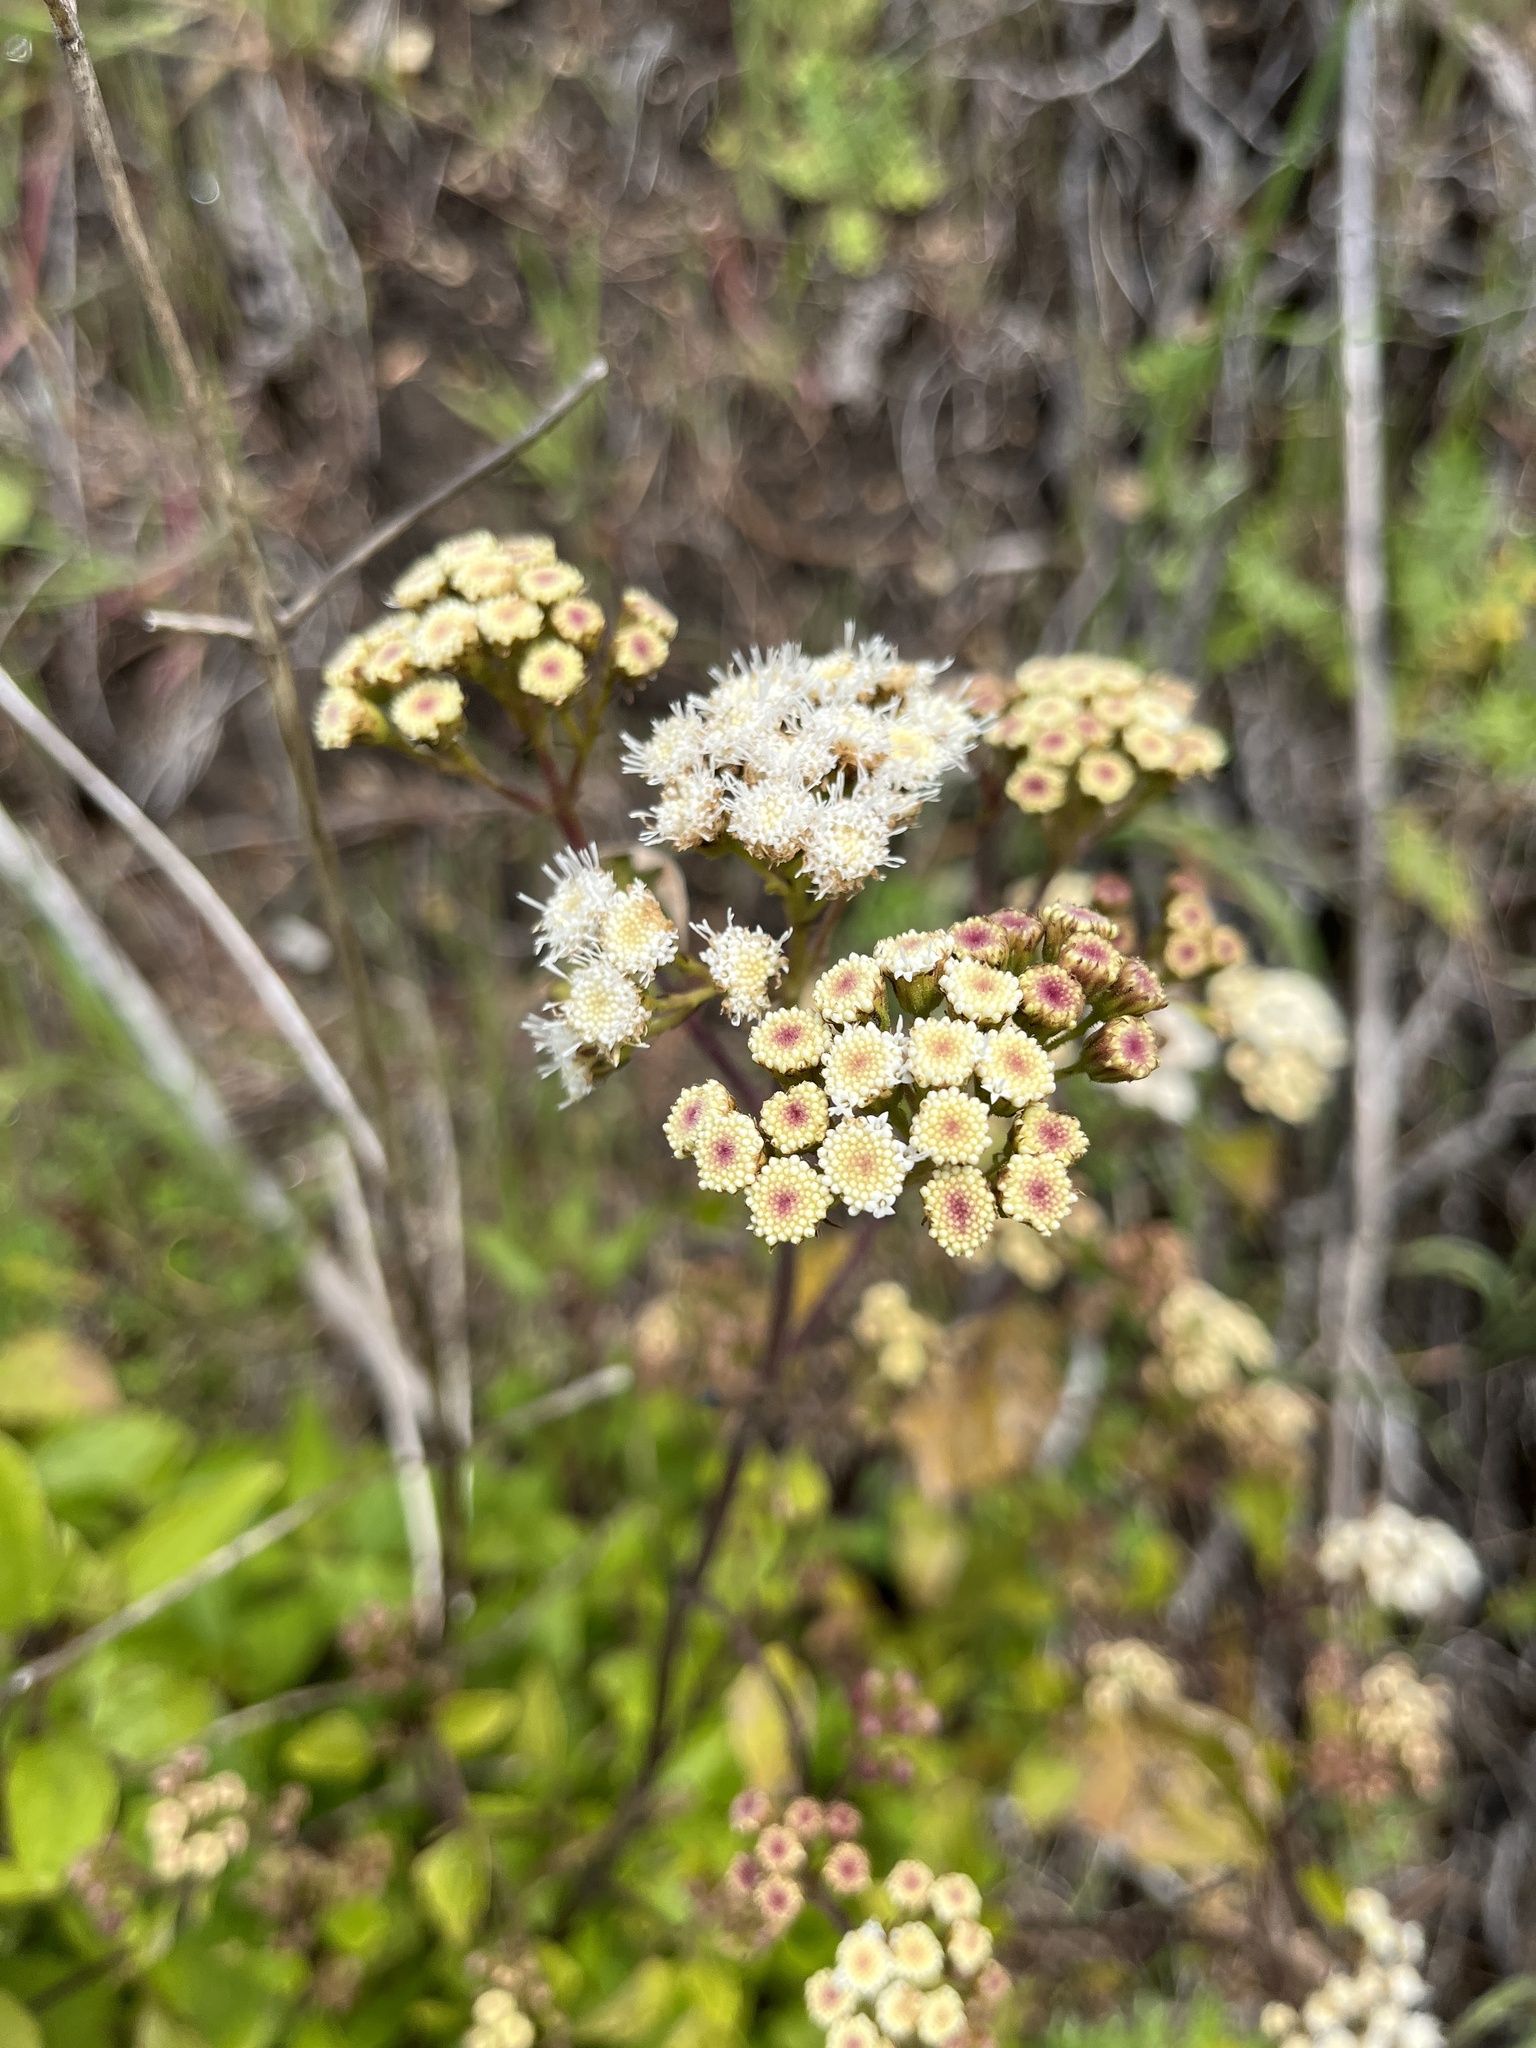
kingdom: Plantae
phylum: Tracheophyta
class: Magnoliopsida
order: Asterales
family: Asteraceae
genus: Ageratina
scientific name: Ageratina adenophora
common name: Sticky snakeroot
